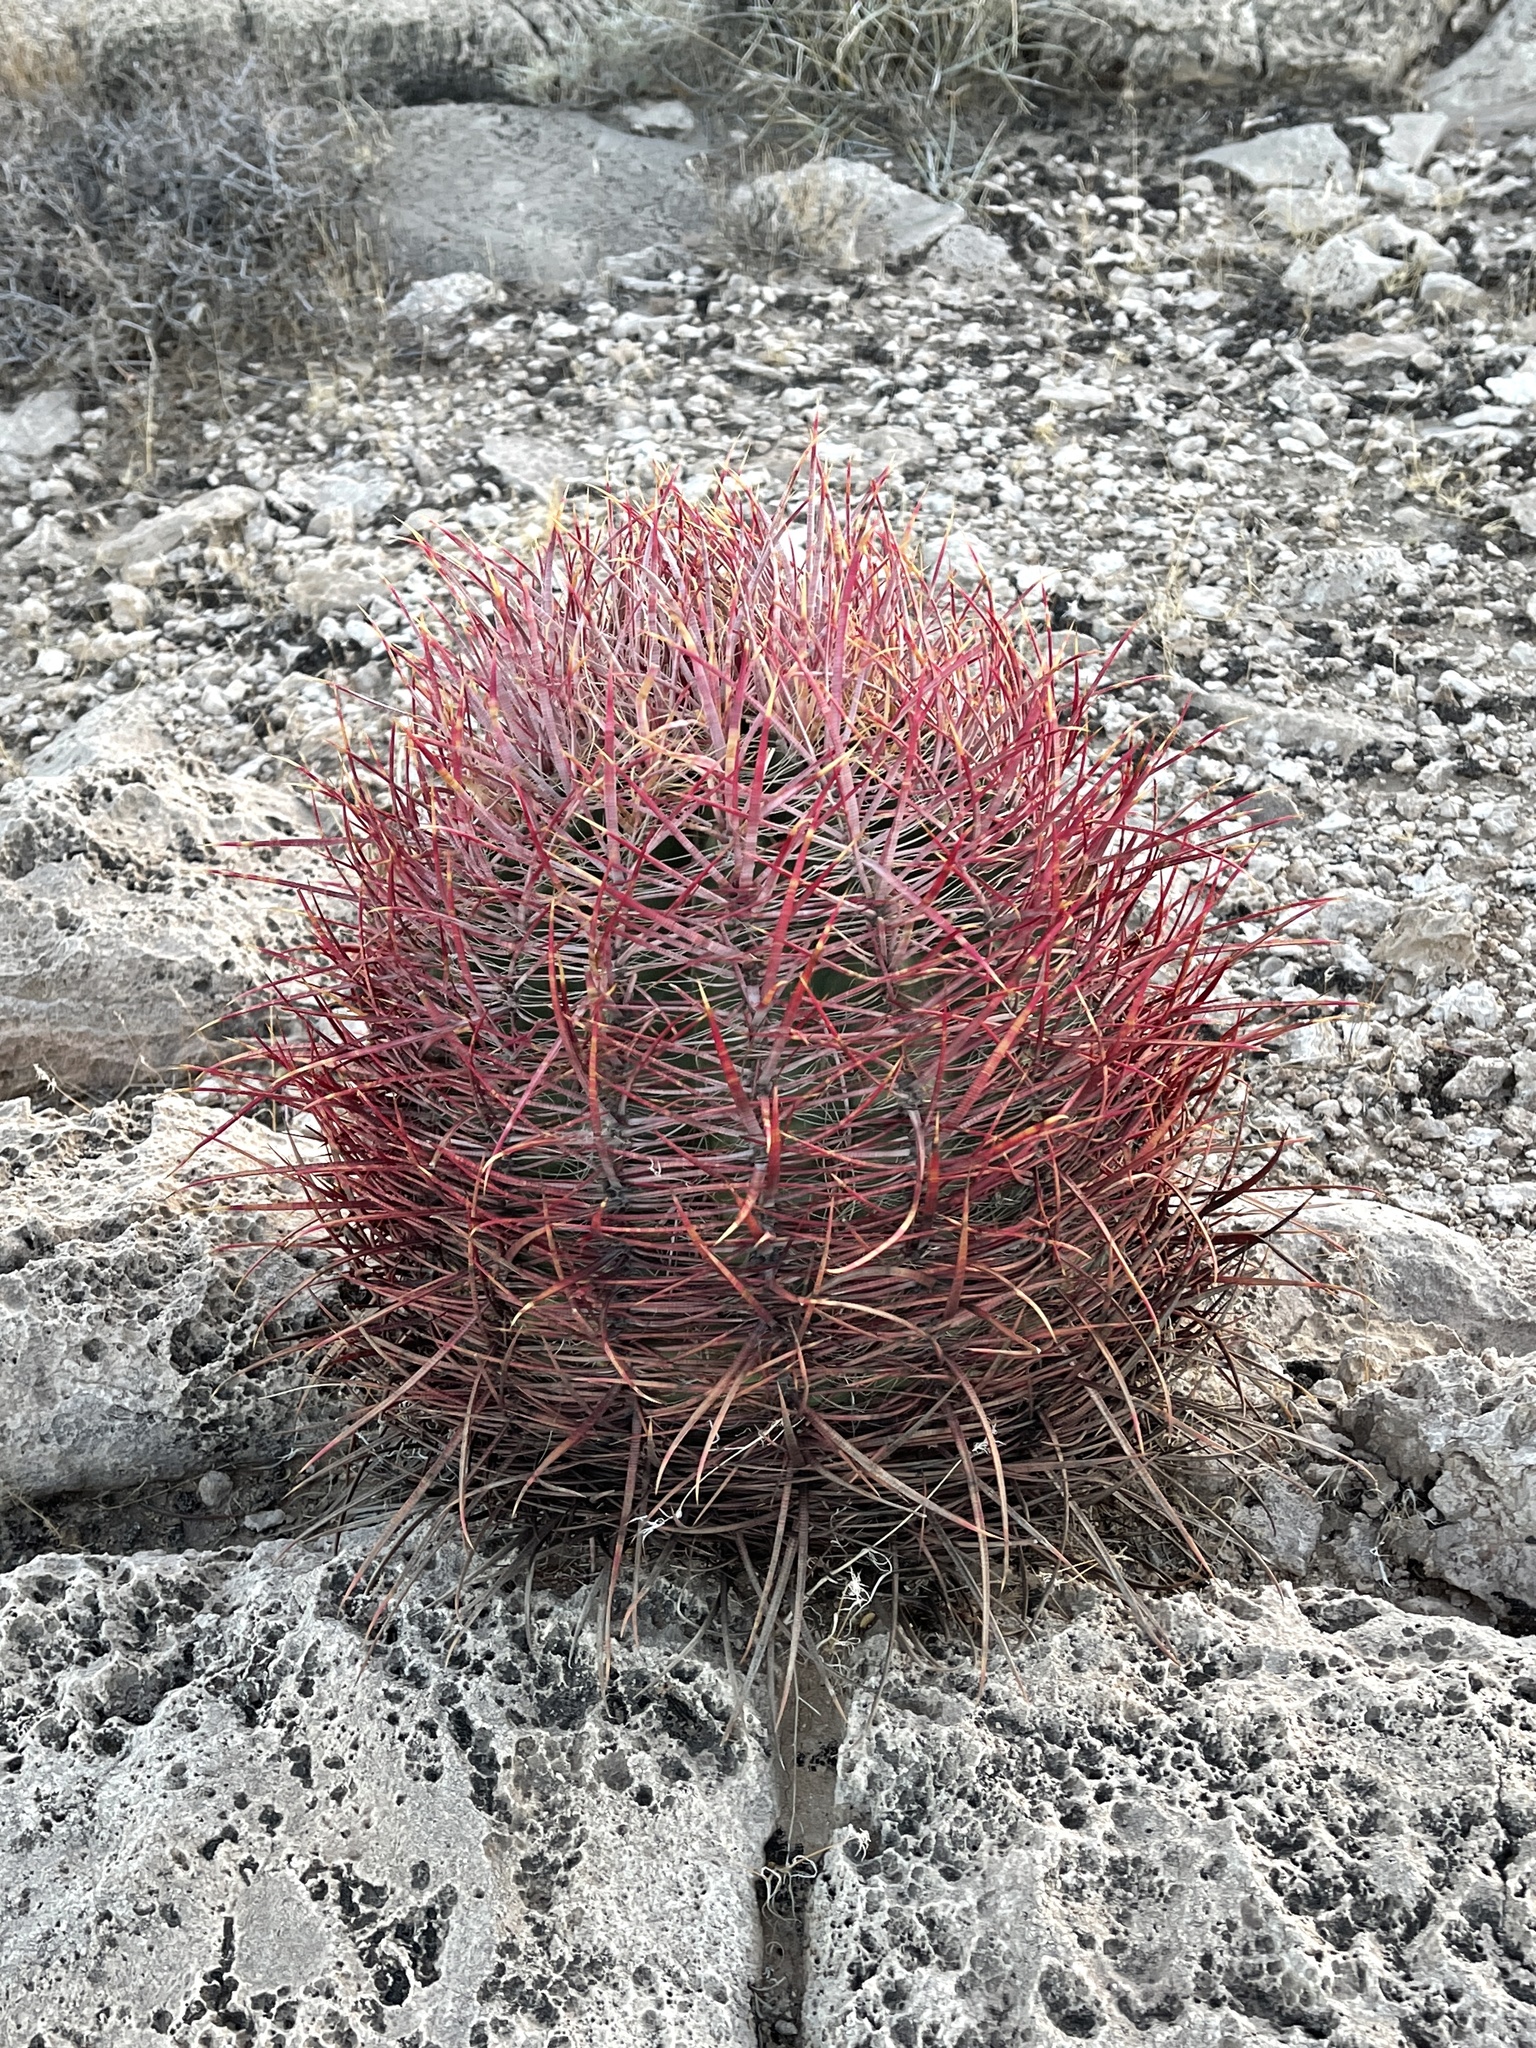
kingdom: Plantae
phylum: Tracheophyta
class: Magnoliopsida
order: Caryophyllales
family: Cactaceae
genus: Ferocactus
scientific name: Ferocactus cylindraceus
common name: California barrel cactus
